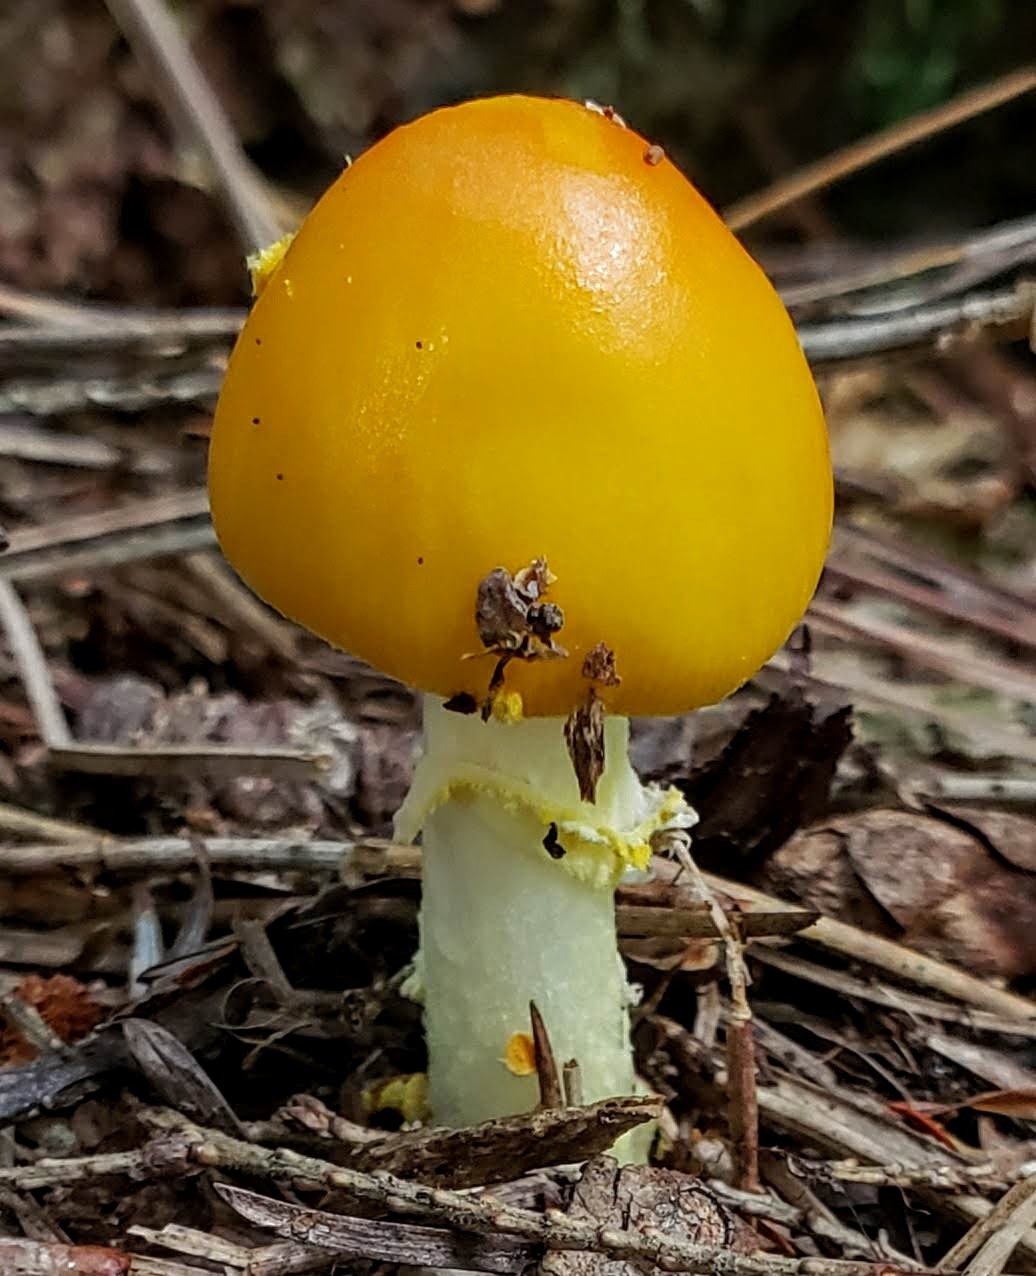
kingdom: Fungi
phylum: Basidiomycota
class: Agaricomycetes
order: Agaricales
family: Amanitaceae
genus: Amanita
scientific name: Amanita flavoconia
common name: Yellow patches
